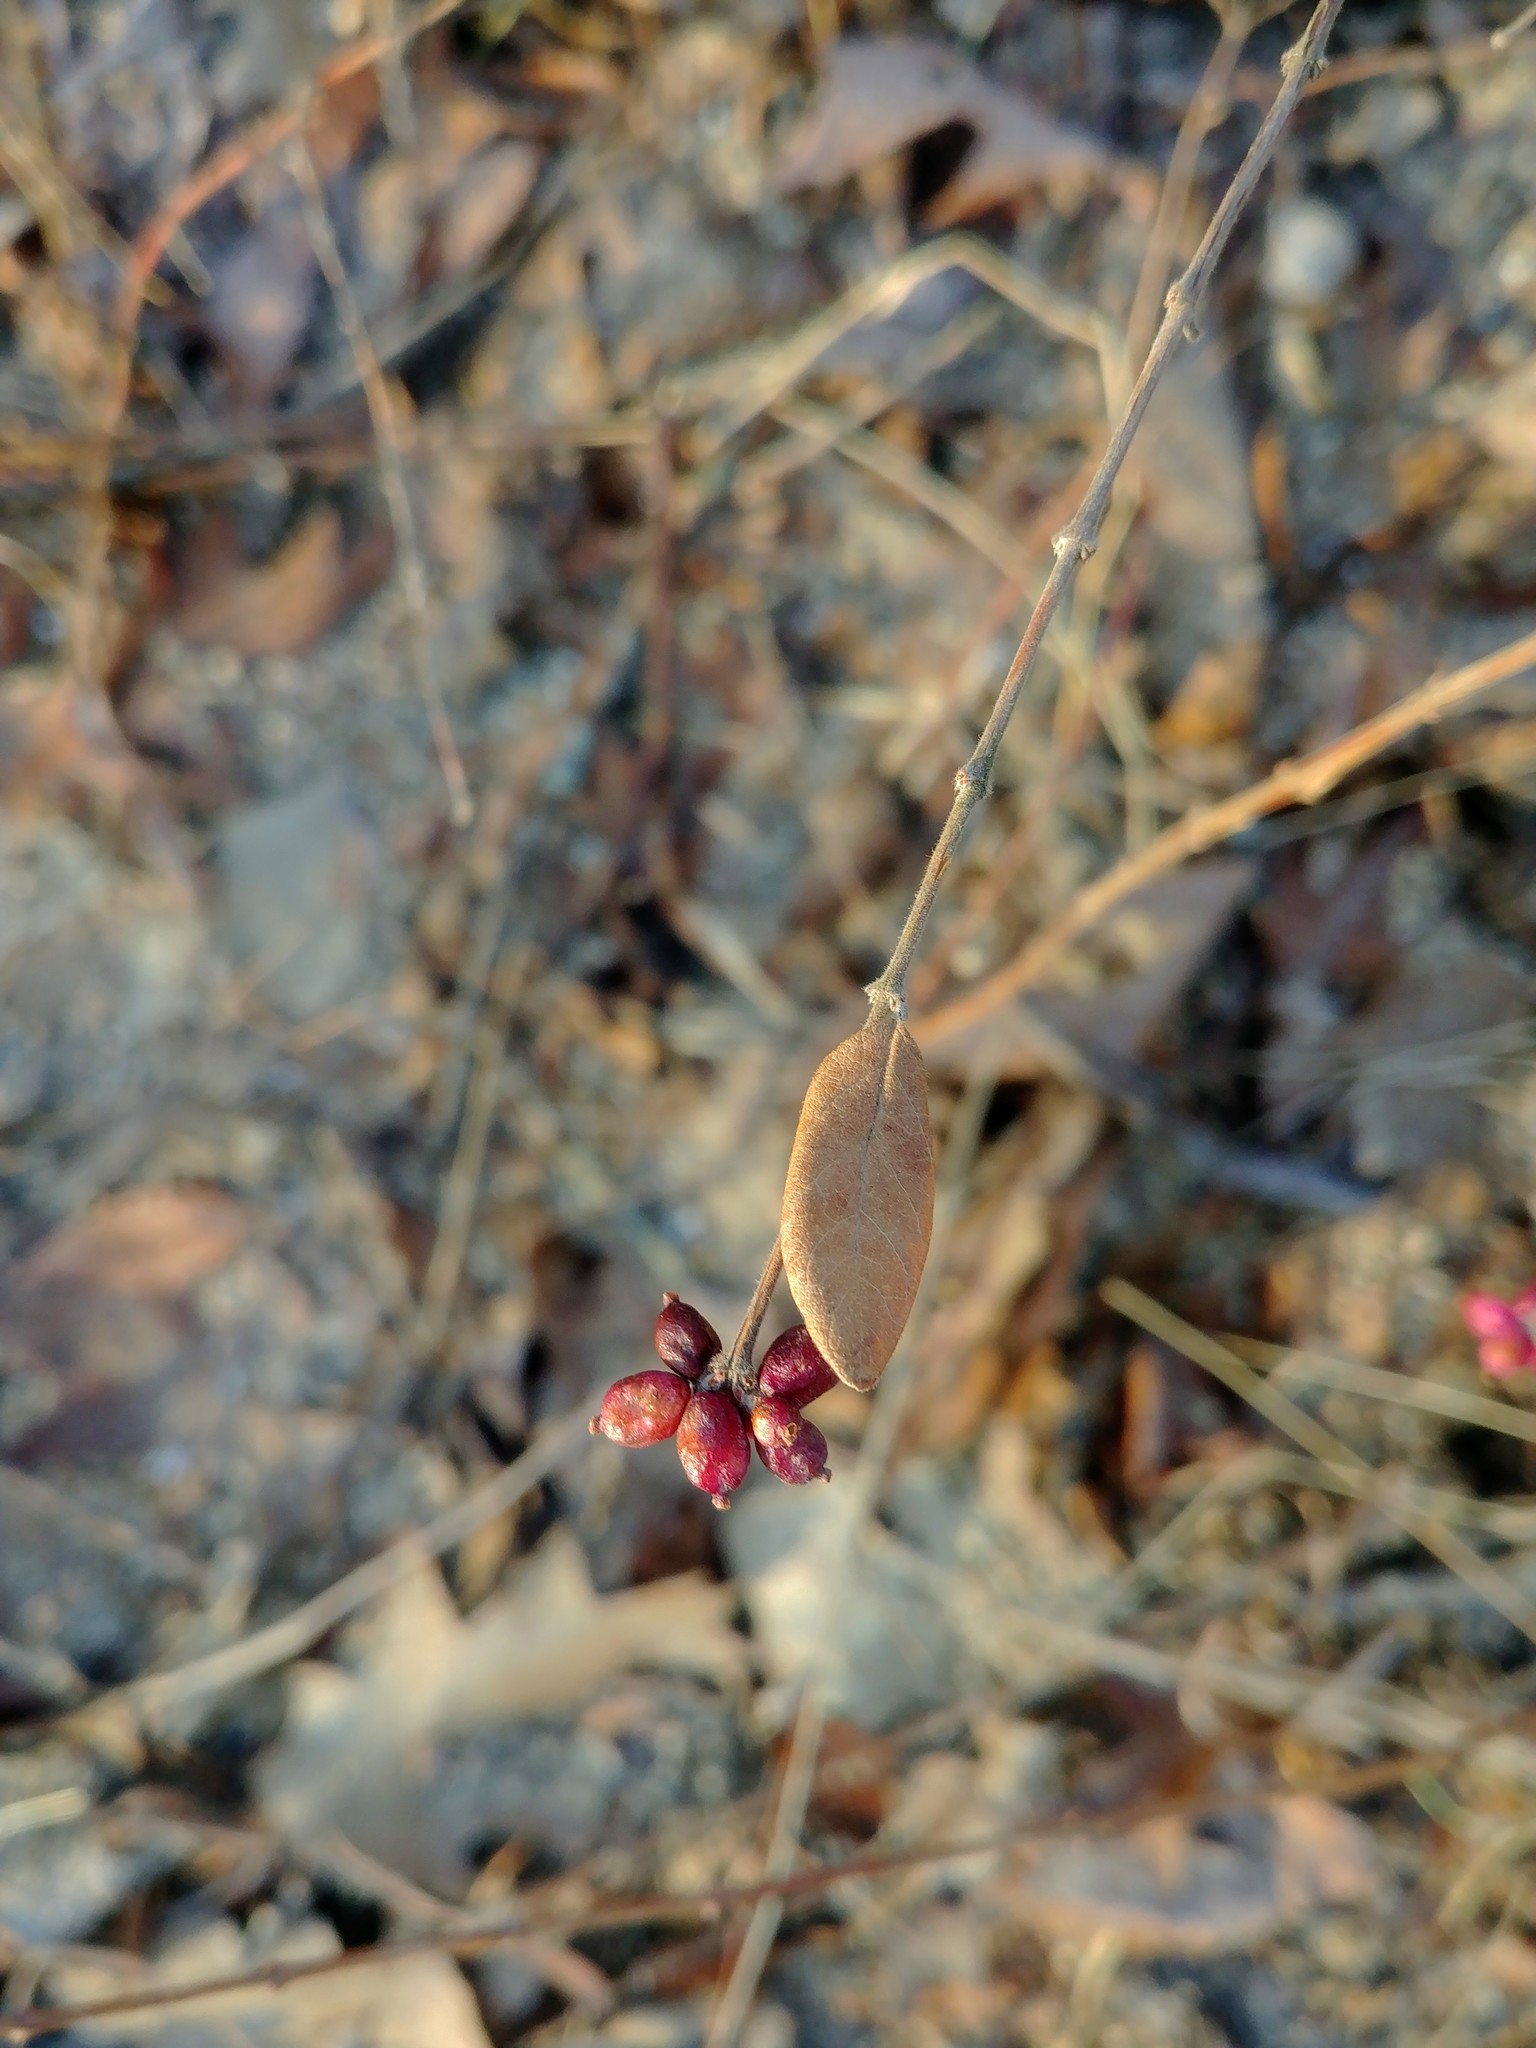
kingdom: Plantae
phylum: Tracheophyta
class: Magnoliopsida
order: Dipsacales
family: Caprifoliaceae
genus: Symphoricarpos
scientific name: Symphoricarpos orbiculatus
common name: Coralberry
